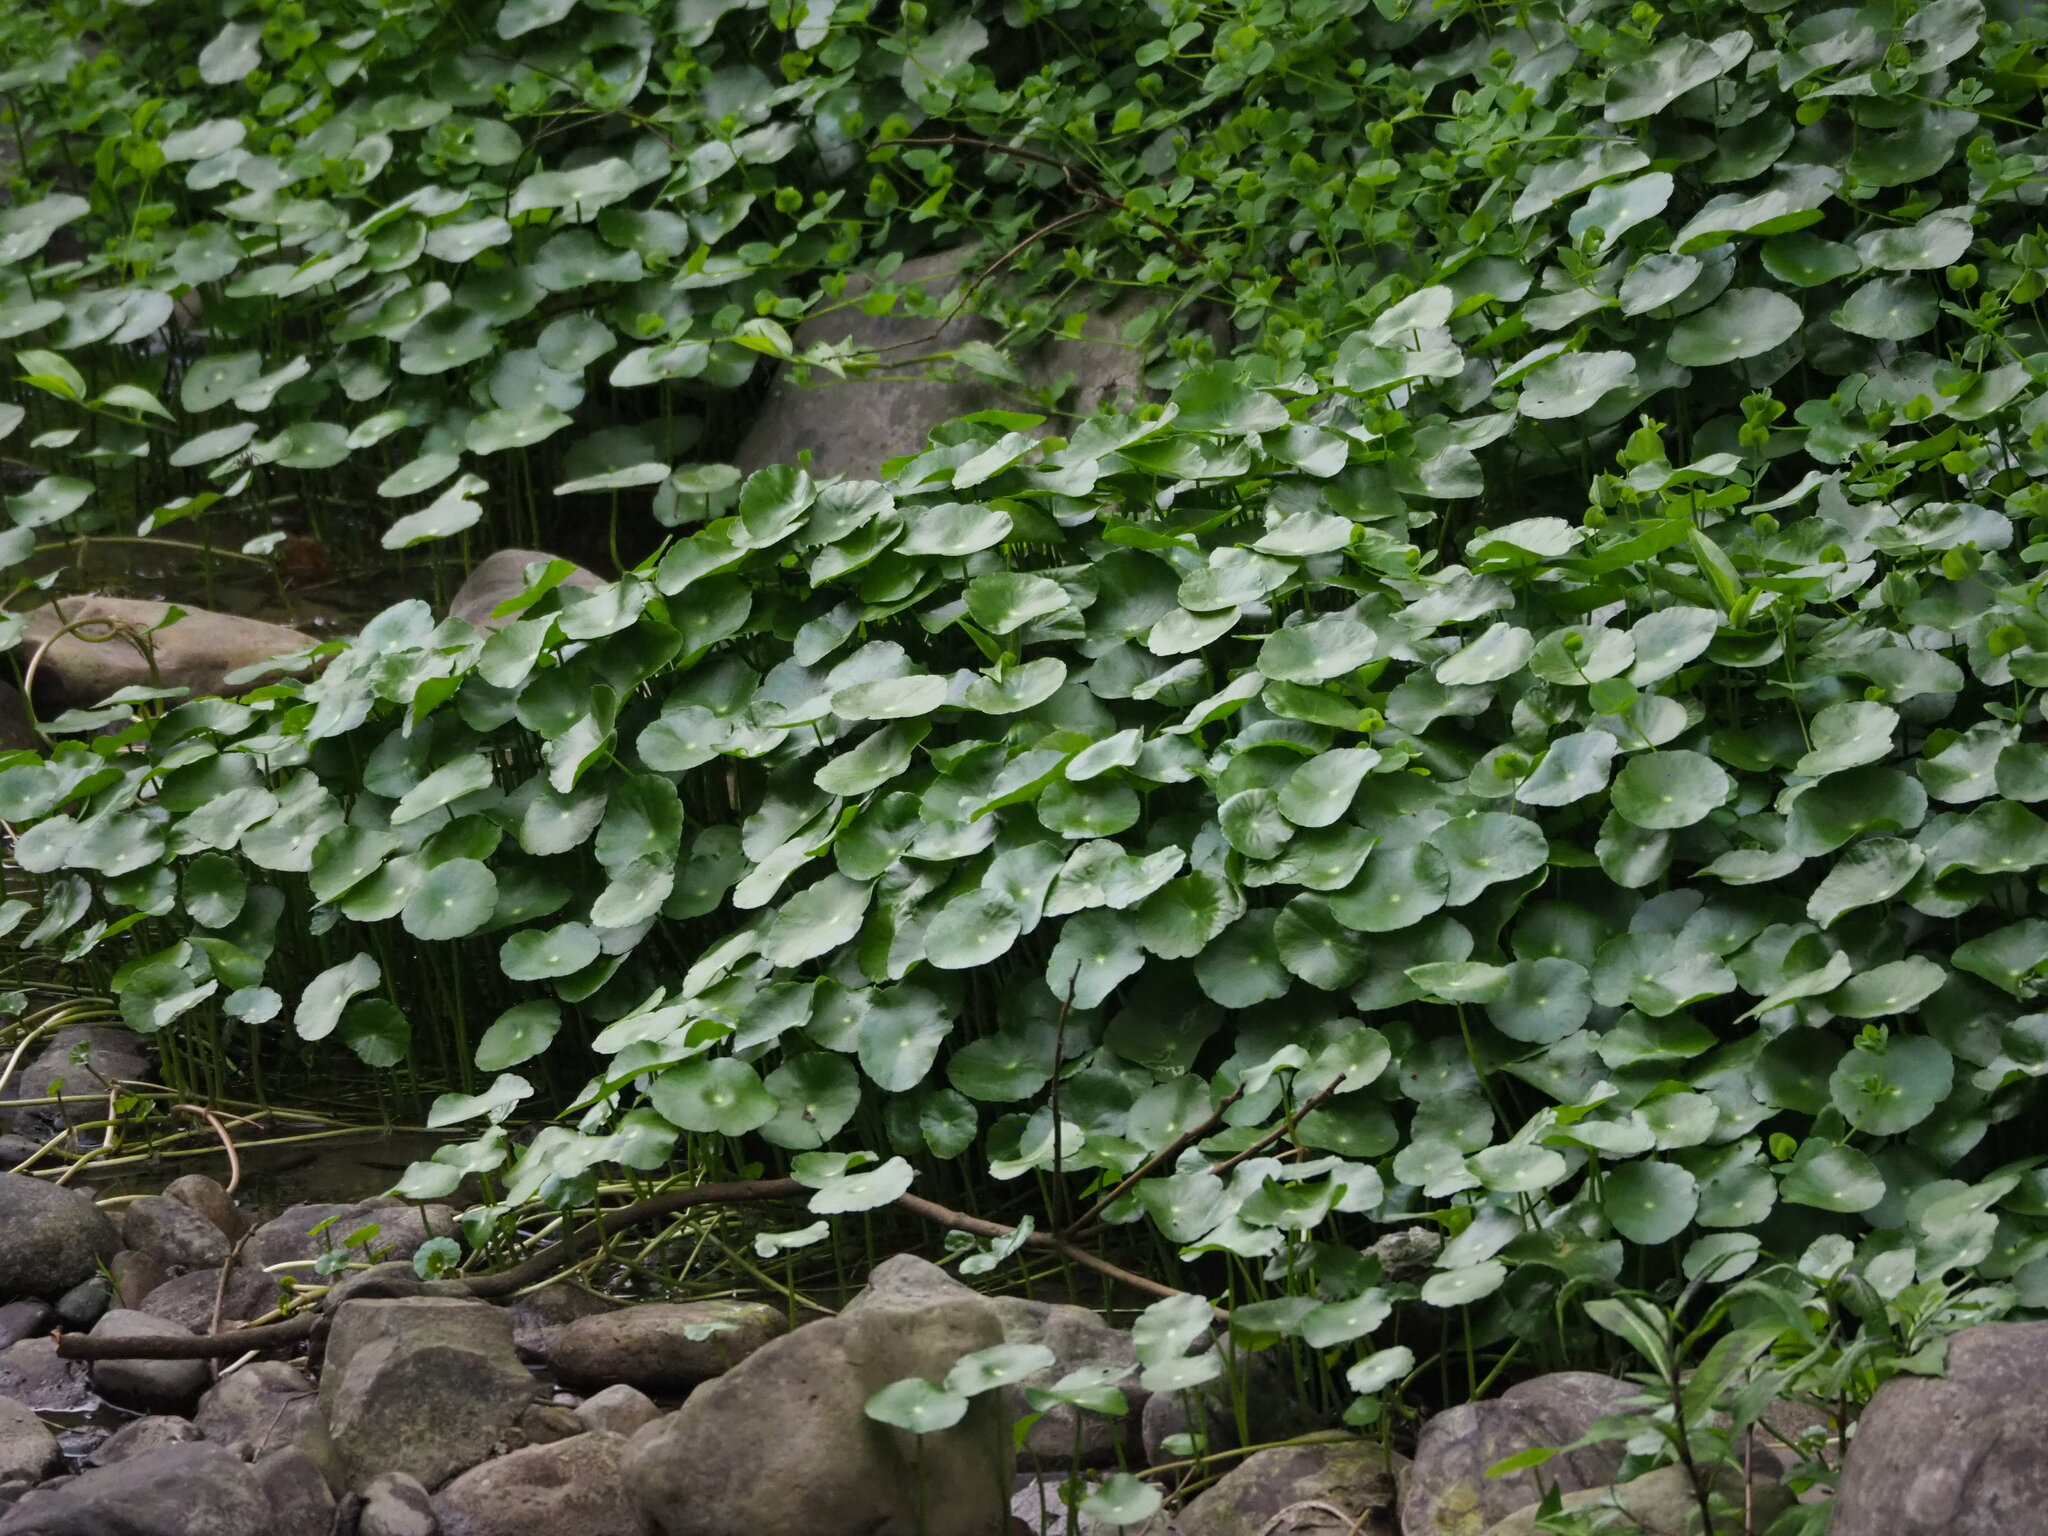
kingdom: Plantae
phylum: Tracheophyta
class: Magnoliopsida
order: Apiales
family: Araliaceae
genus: Hydrocotyle
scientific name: Hydrocotyle verticillata
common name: Whorled marshpennywort
